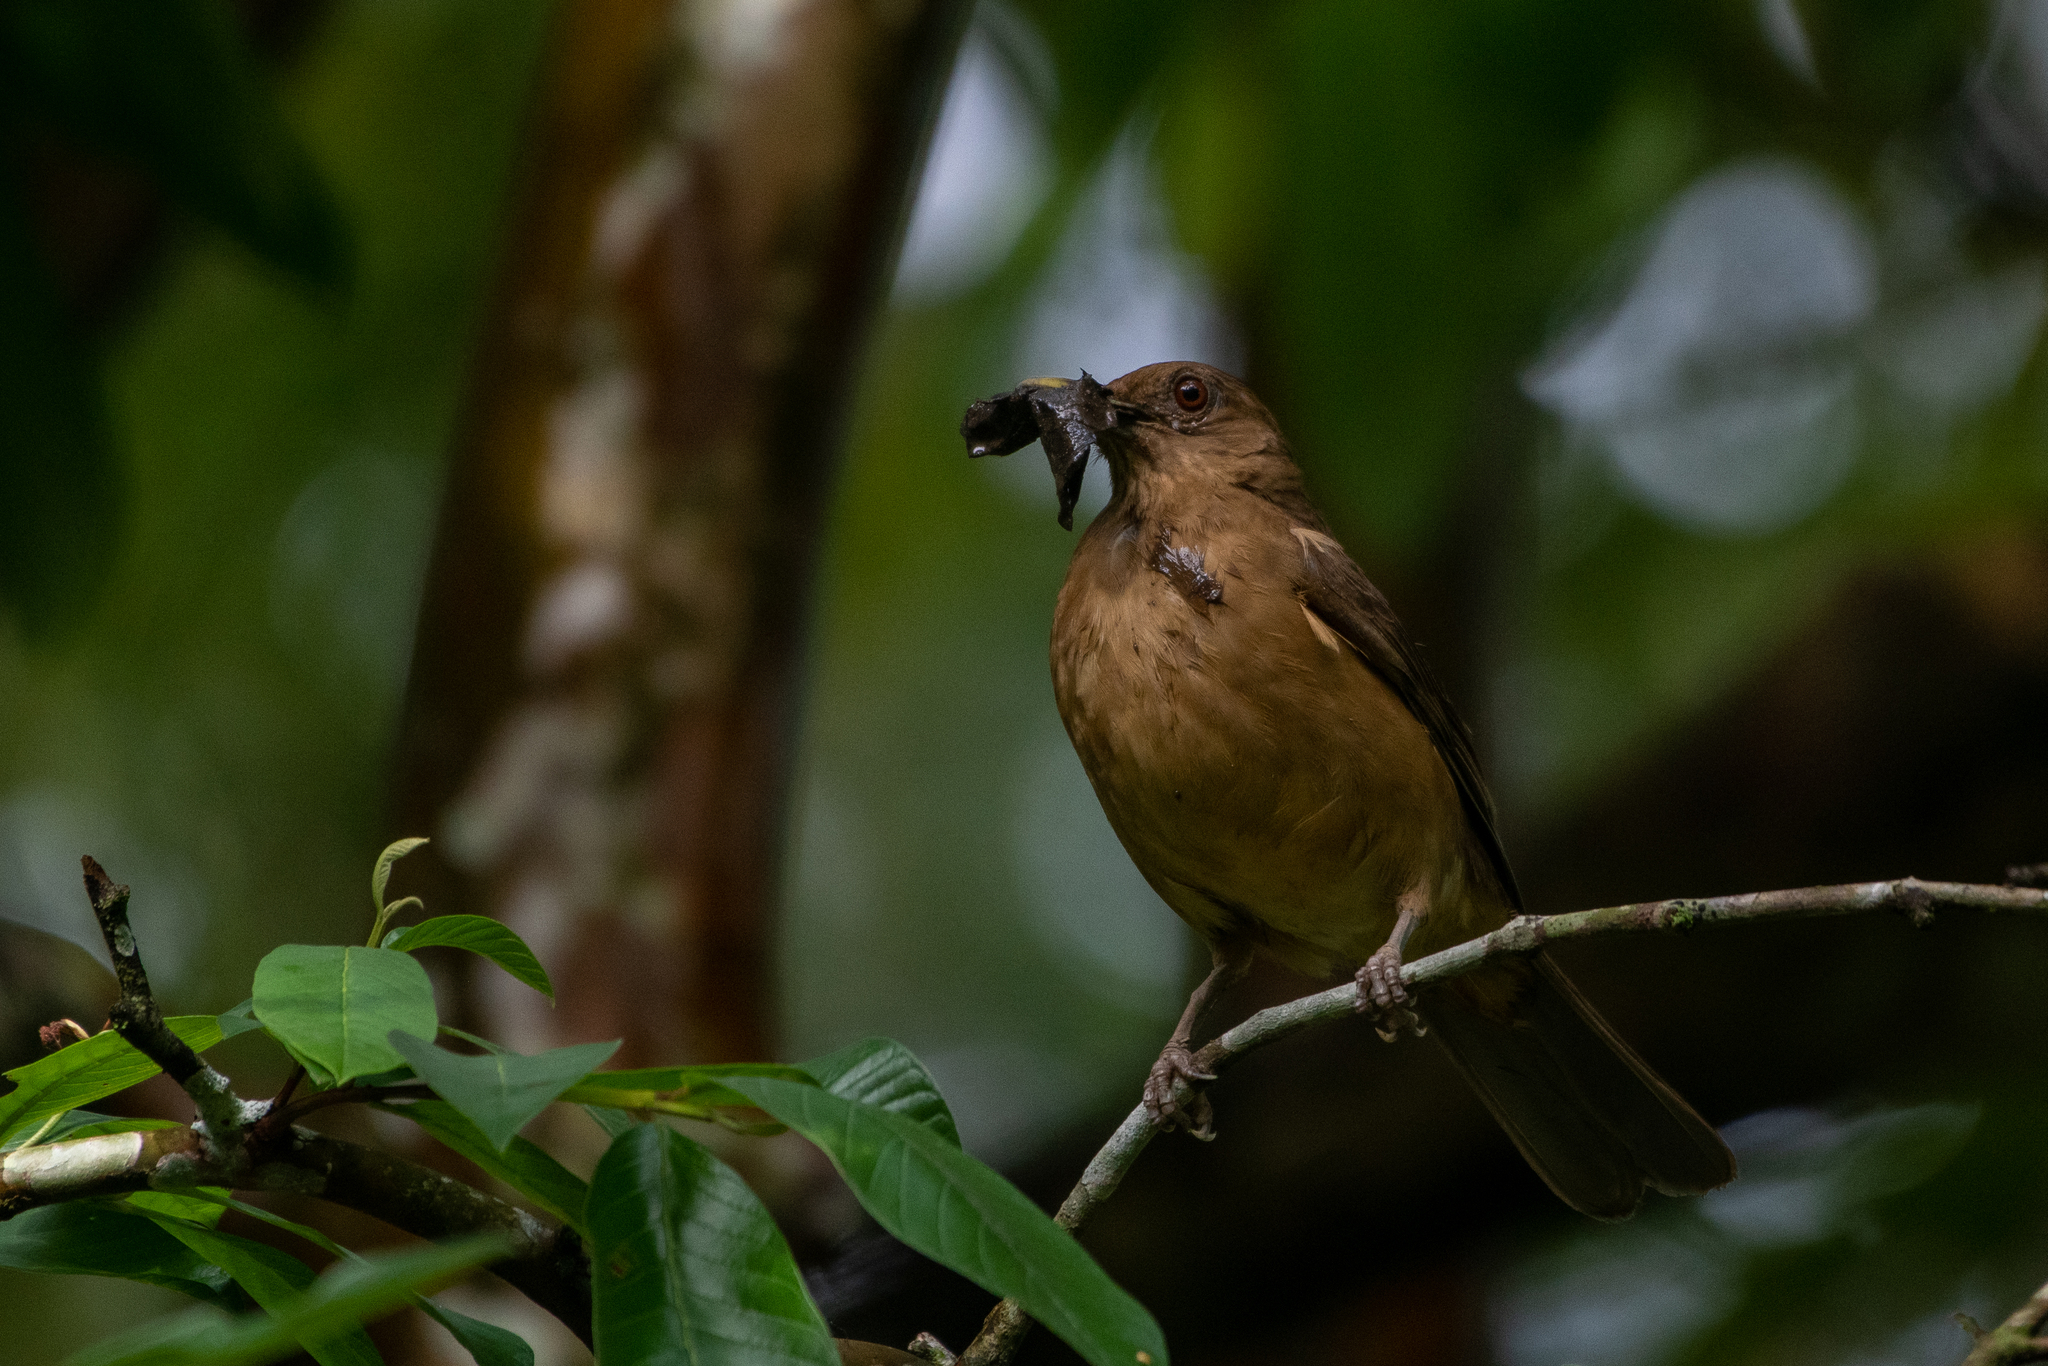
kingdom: Animalia
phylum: Chordata
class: Aves
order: Passeriformes
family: Turdidae
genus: Turdus
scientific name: Turdus grayi
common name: Clay-colored thrush
